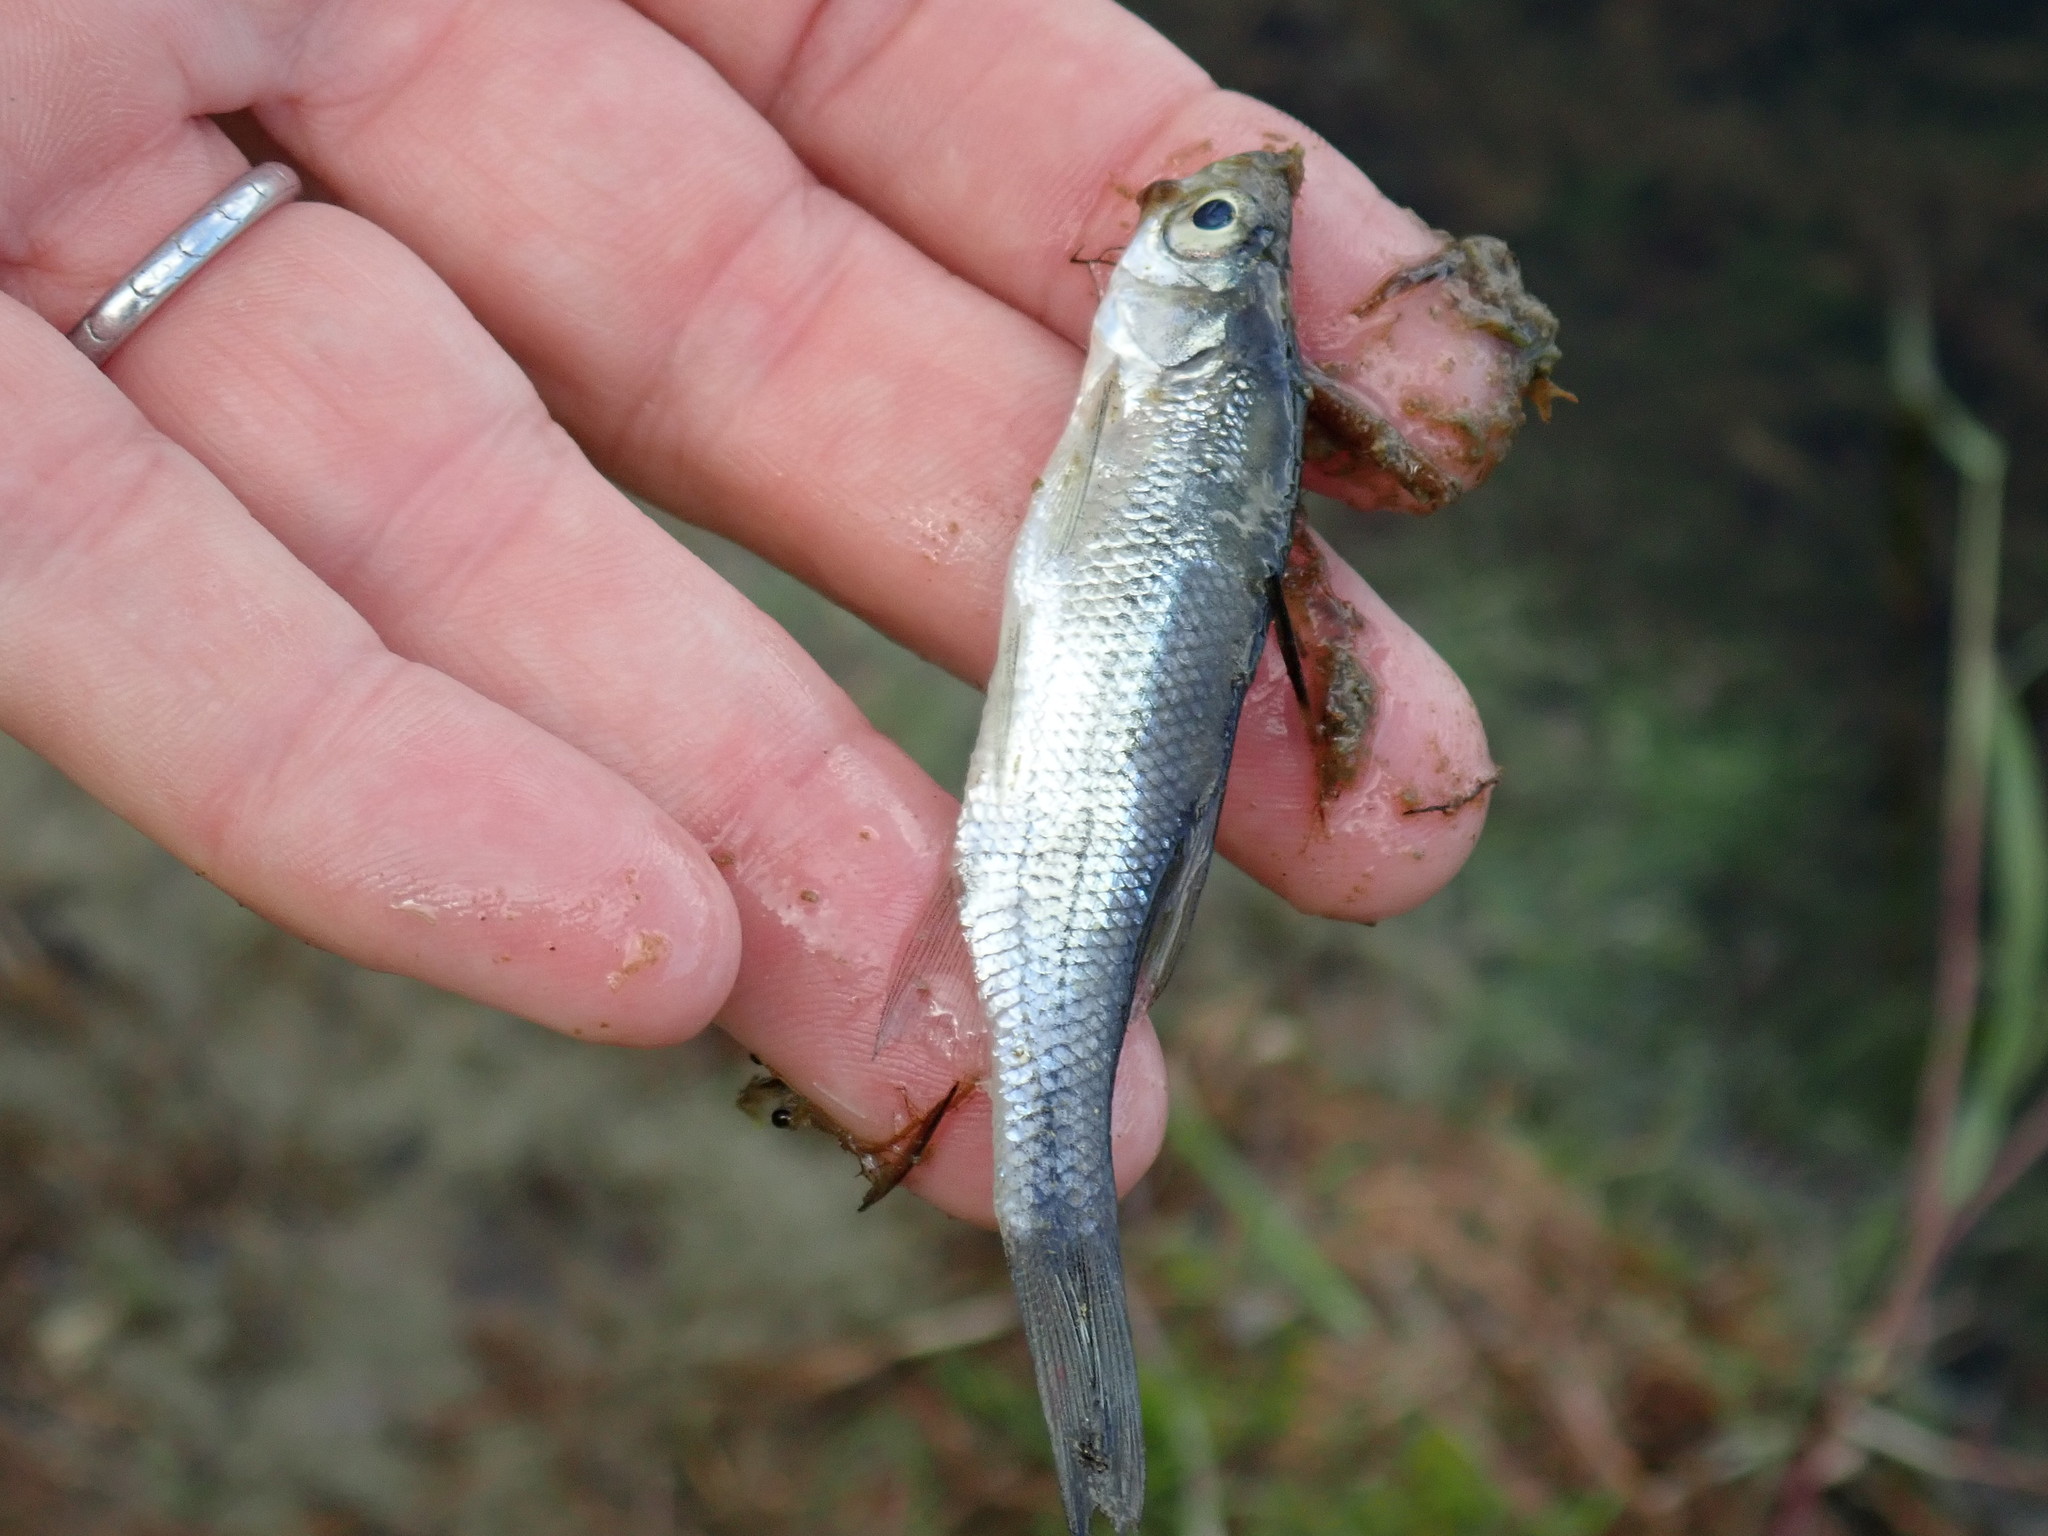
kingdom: Animalia
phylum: Chordata
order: Cypriniformes
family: Cyprinidae
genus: Notemigonus
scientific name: Notemigonus crysoleucas
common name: Golden shiner
